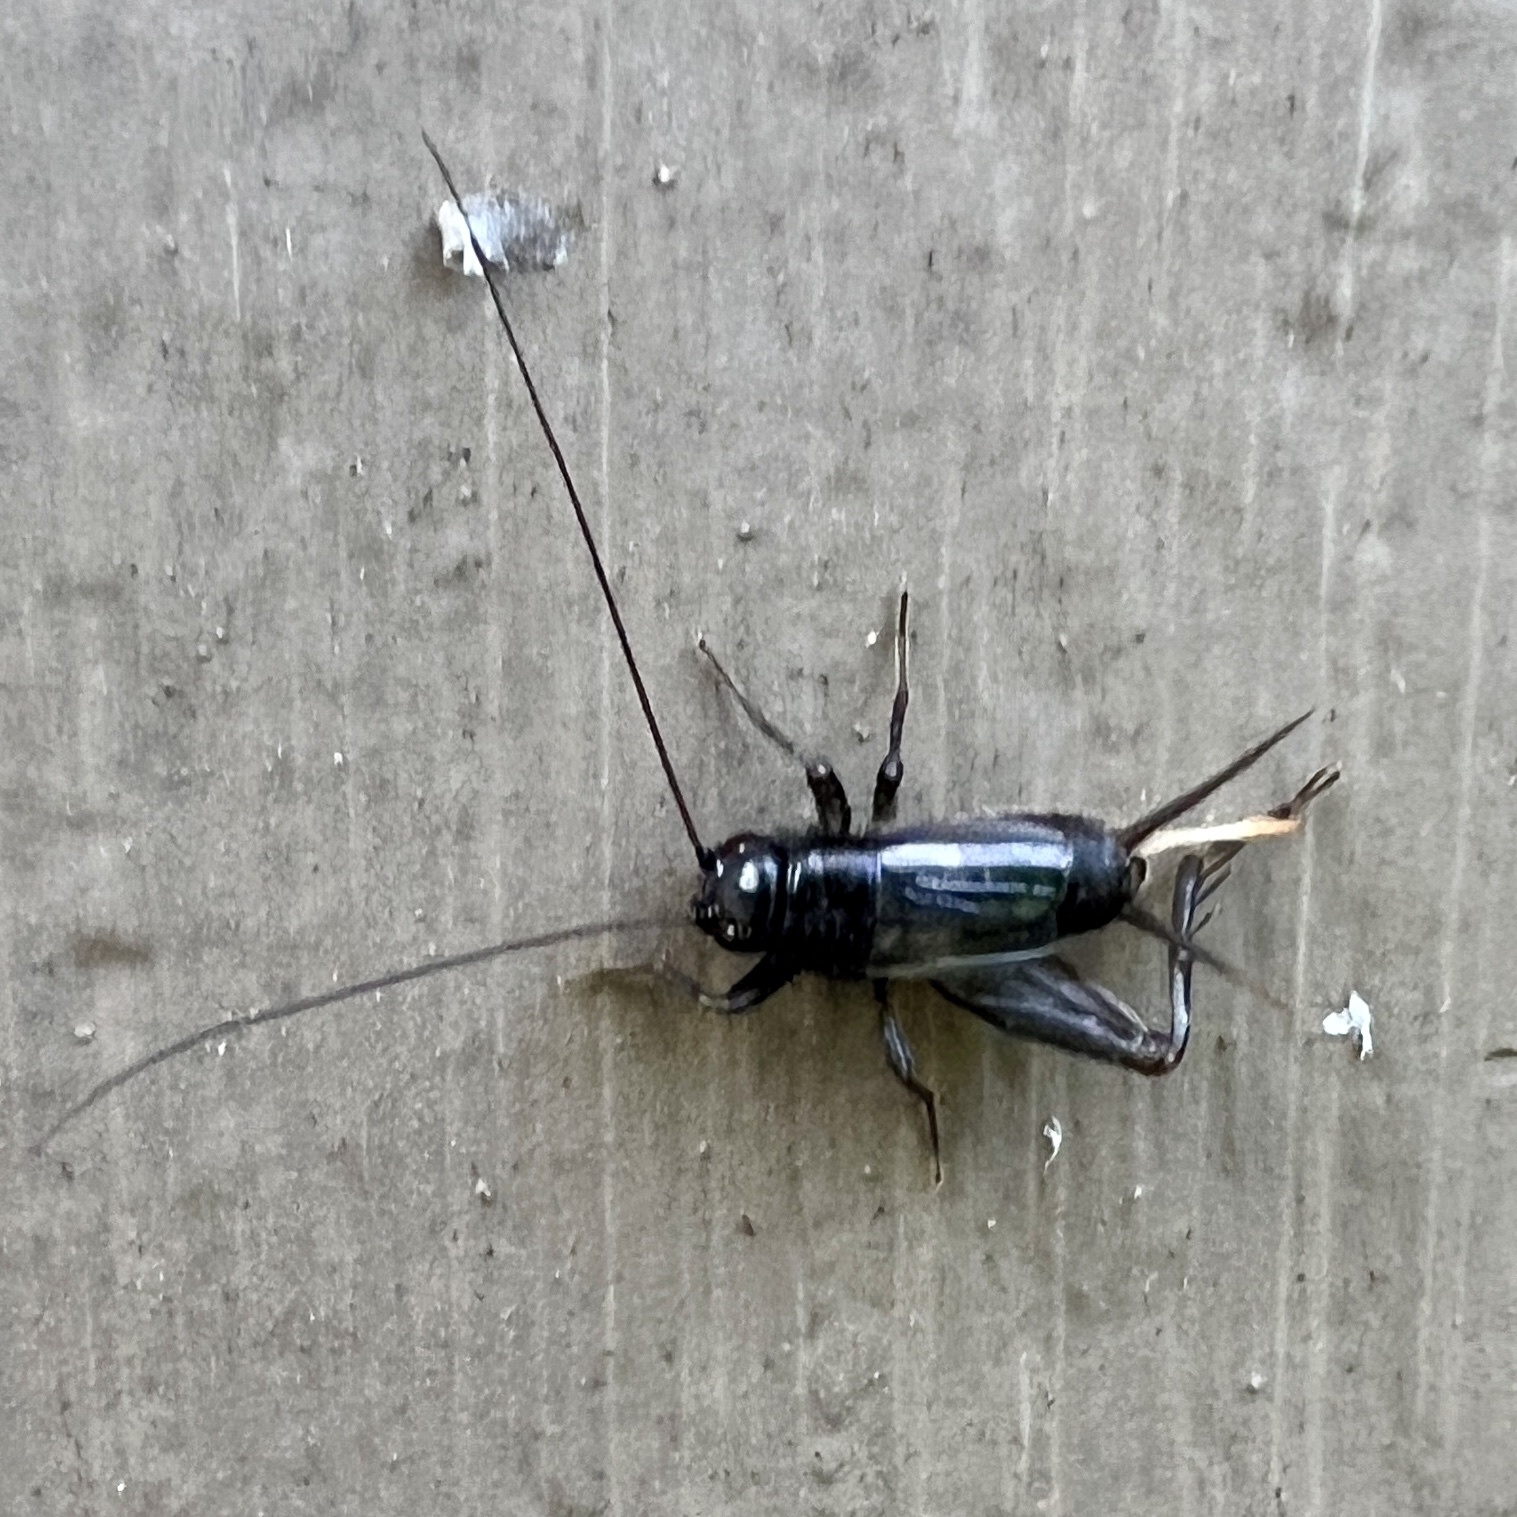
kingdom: Animalia
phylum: Arthropoda
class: Insecta
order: Orthoptera
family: Trigonidiidae
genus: Eunemobius
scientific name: Eunemobius carolinus
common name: Carolina ground cricket
